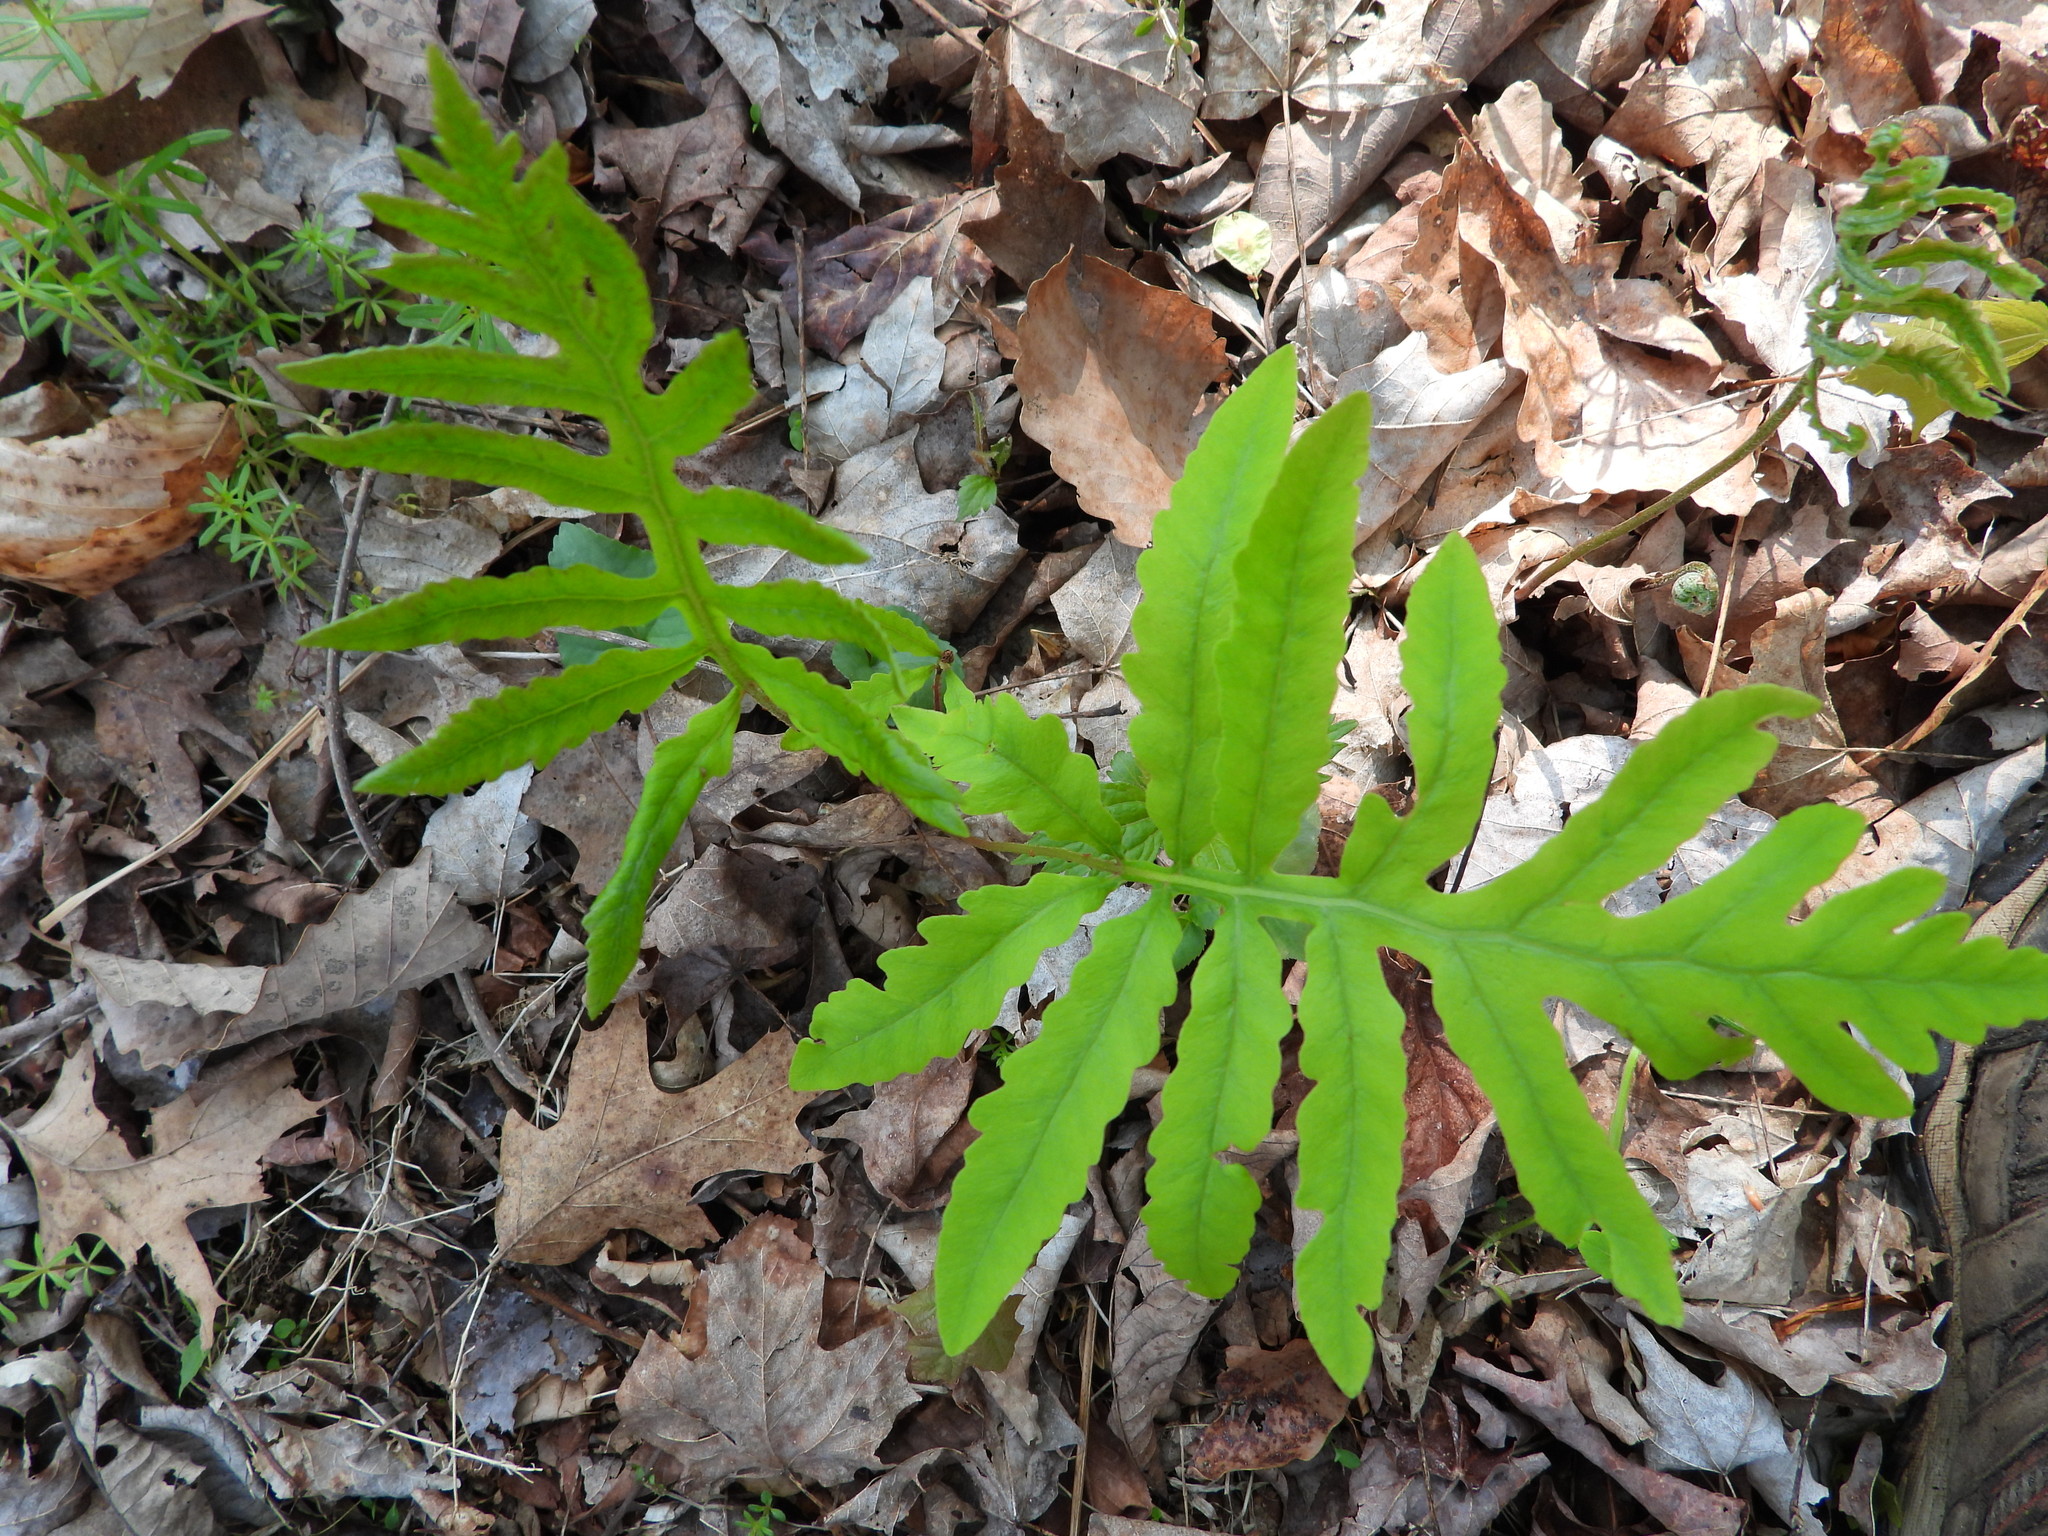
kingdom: Plantae
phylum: Tracheophyta
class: Polypodiopsida
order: Polypodiales
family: Onocleaceae
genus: Onoclea
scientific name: Onoclea sensibilis
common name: Sensitive fern
